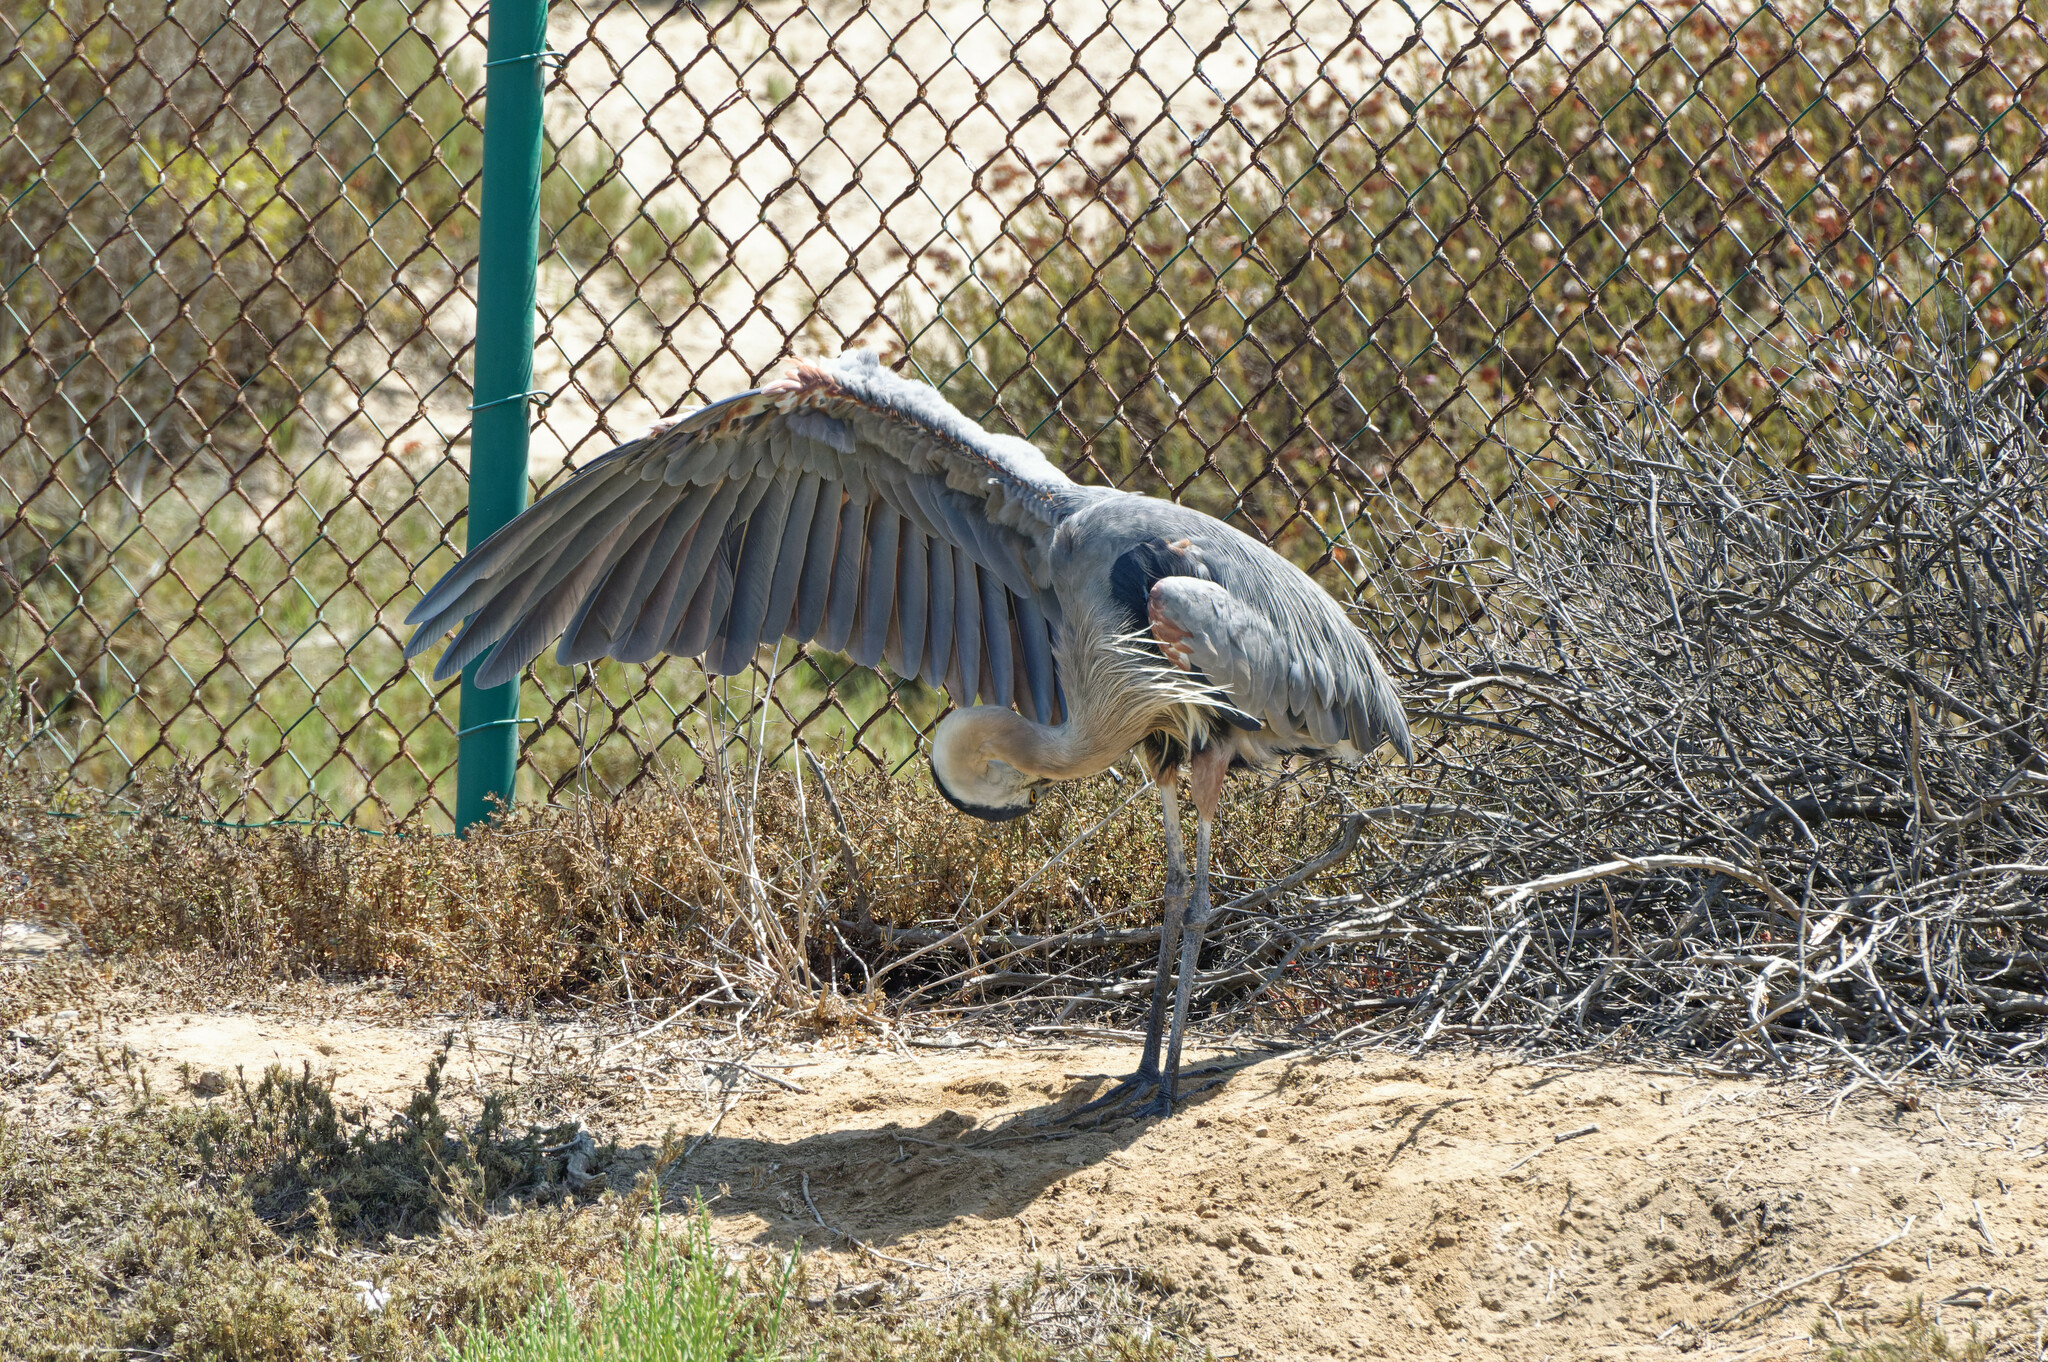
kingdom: Animalia
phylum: Chordata
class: Aves
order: Pelecaniformes
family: Ardeidae
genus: Ardea
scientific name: Ardea herodias
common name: Great blue heron
